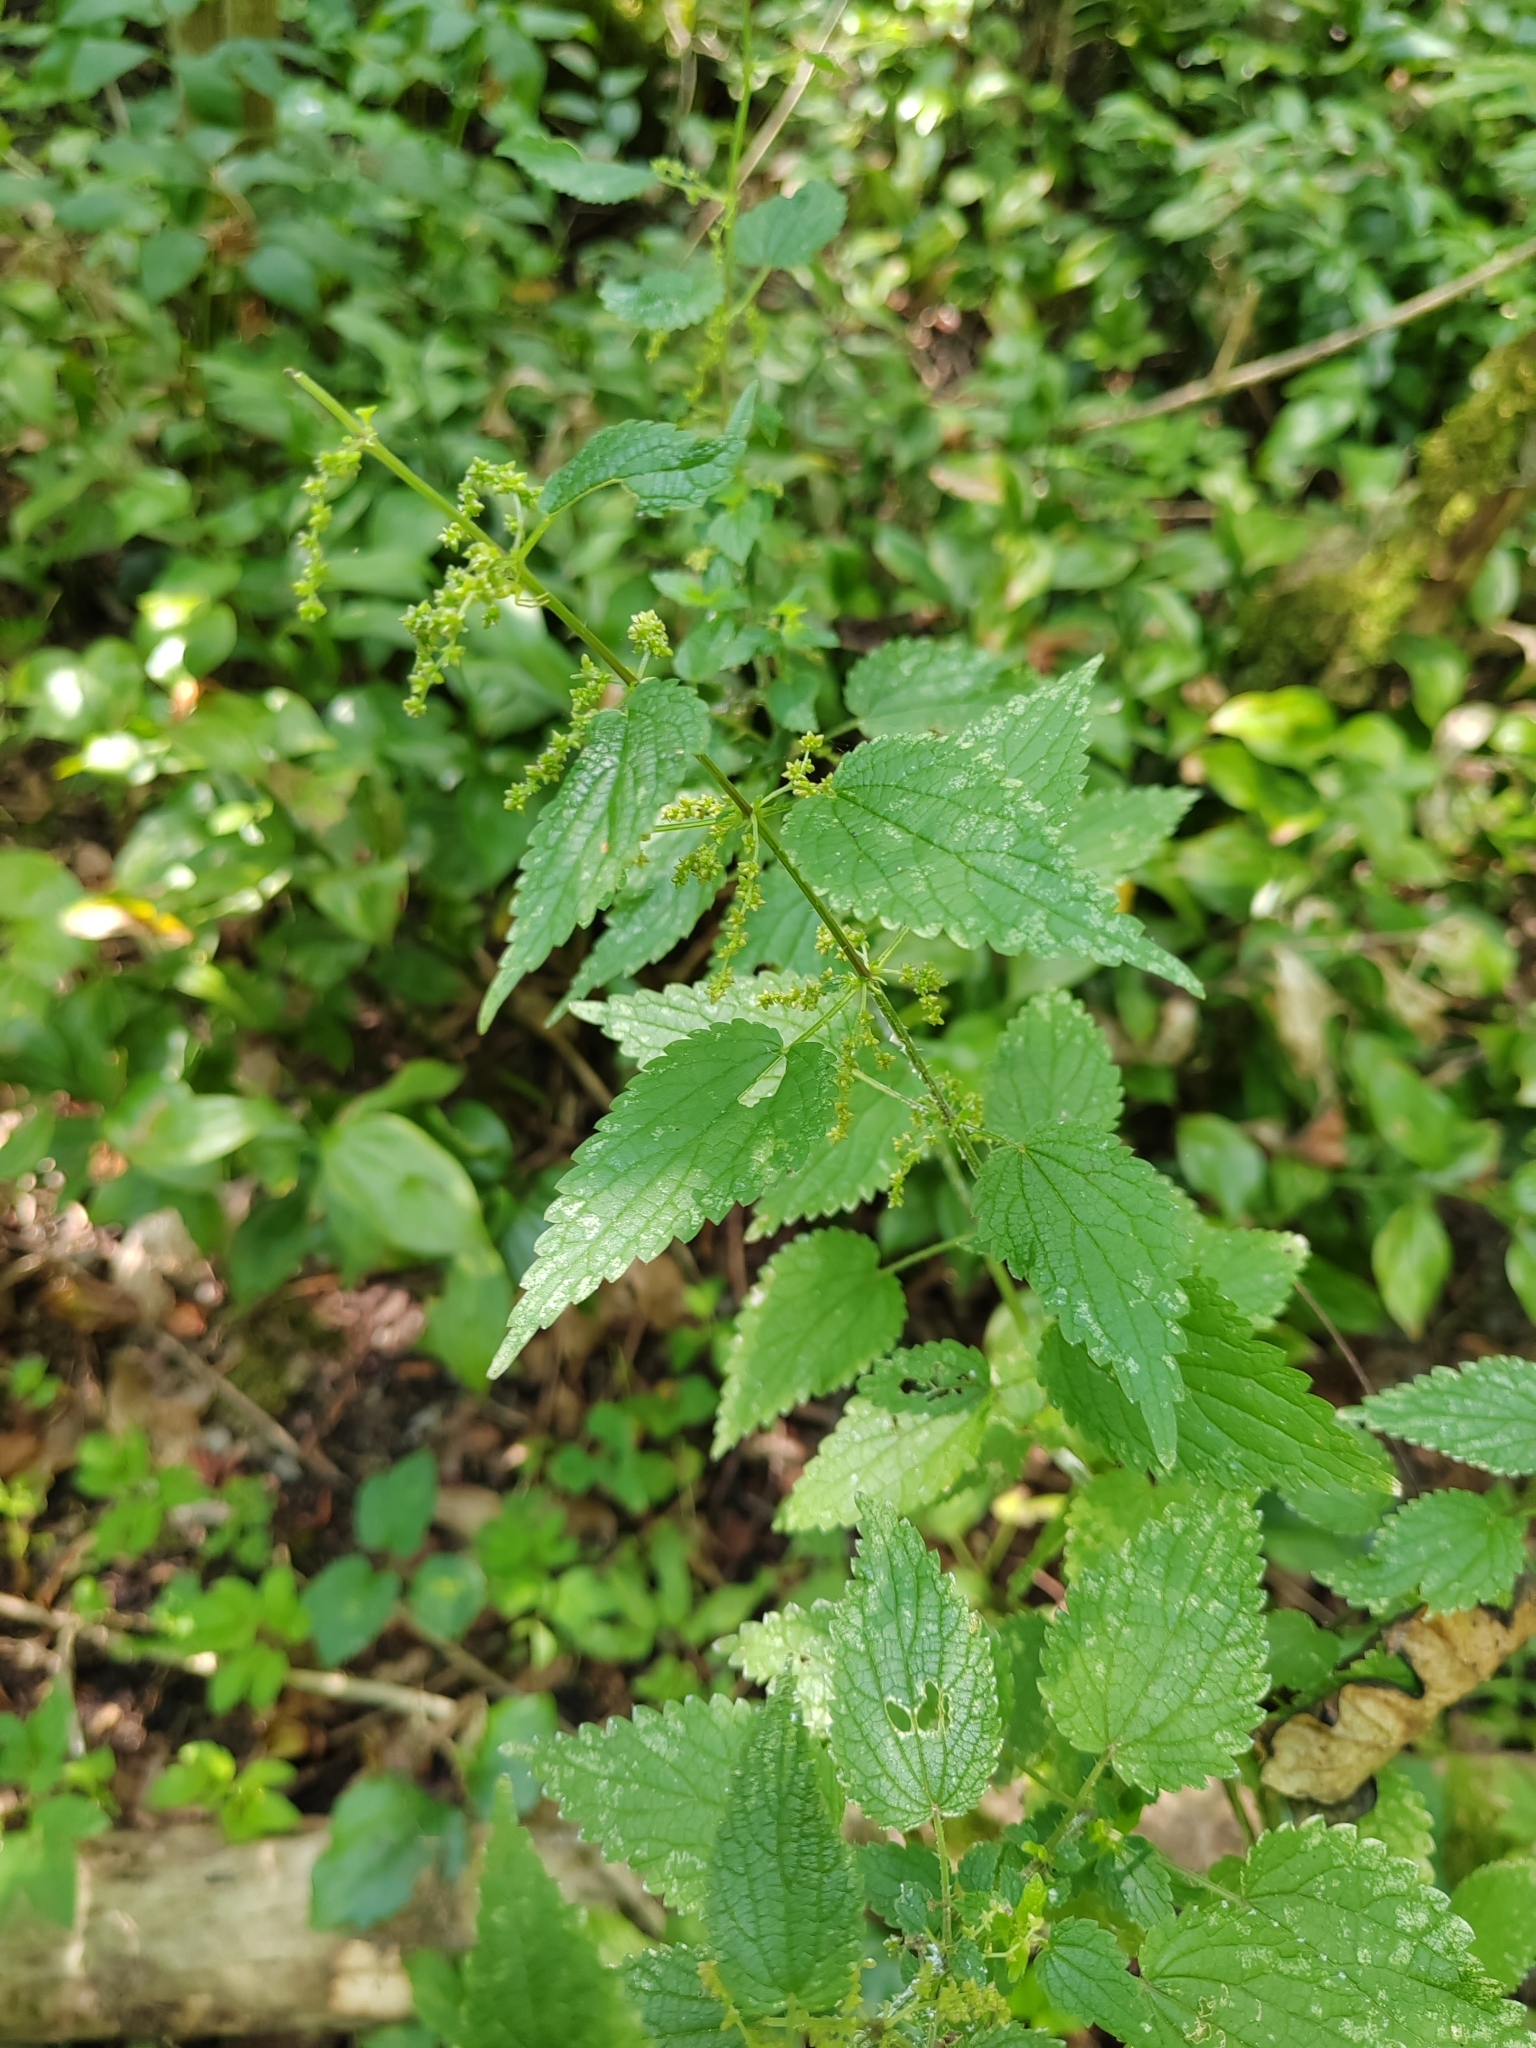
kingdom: Plantae
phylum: Tracheophyta
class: Magnoliopsida
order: Rosales
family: Urticaceae
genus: Urtica
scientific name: Urtica dioica
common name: Common nettle
